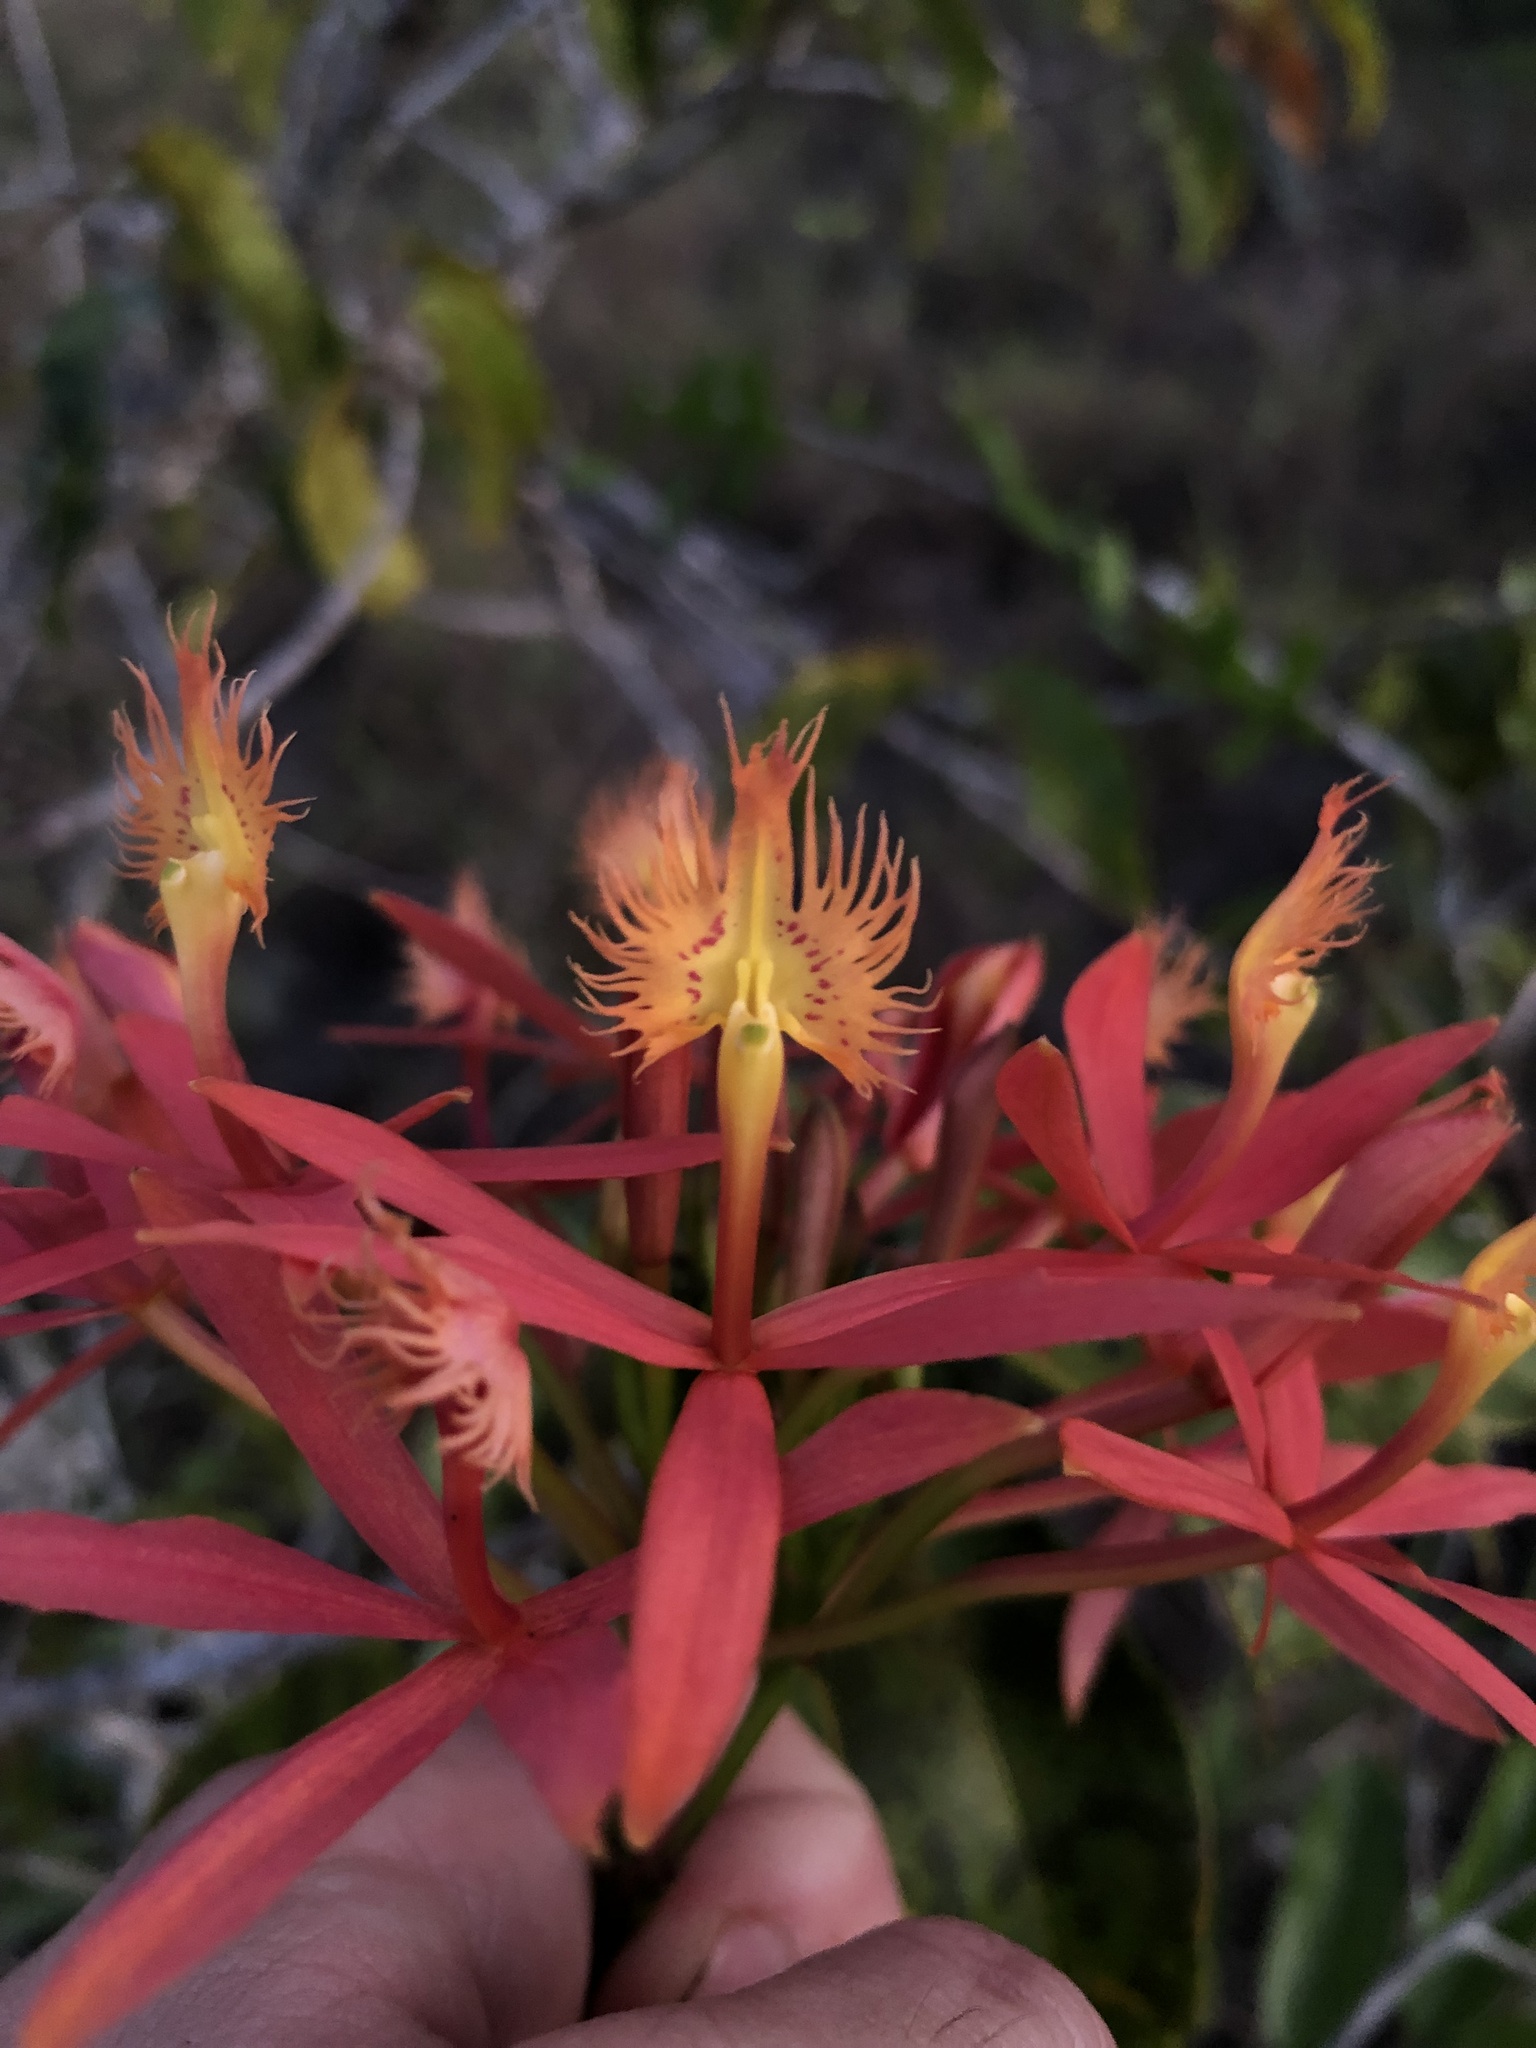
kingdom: Plantae
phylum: Tracheophyta
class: Liliopsida
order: Asparagales
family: Orchidaceae
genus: Epidendrum
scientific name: Epidendrum cinnabarinum
